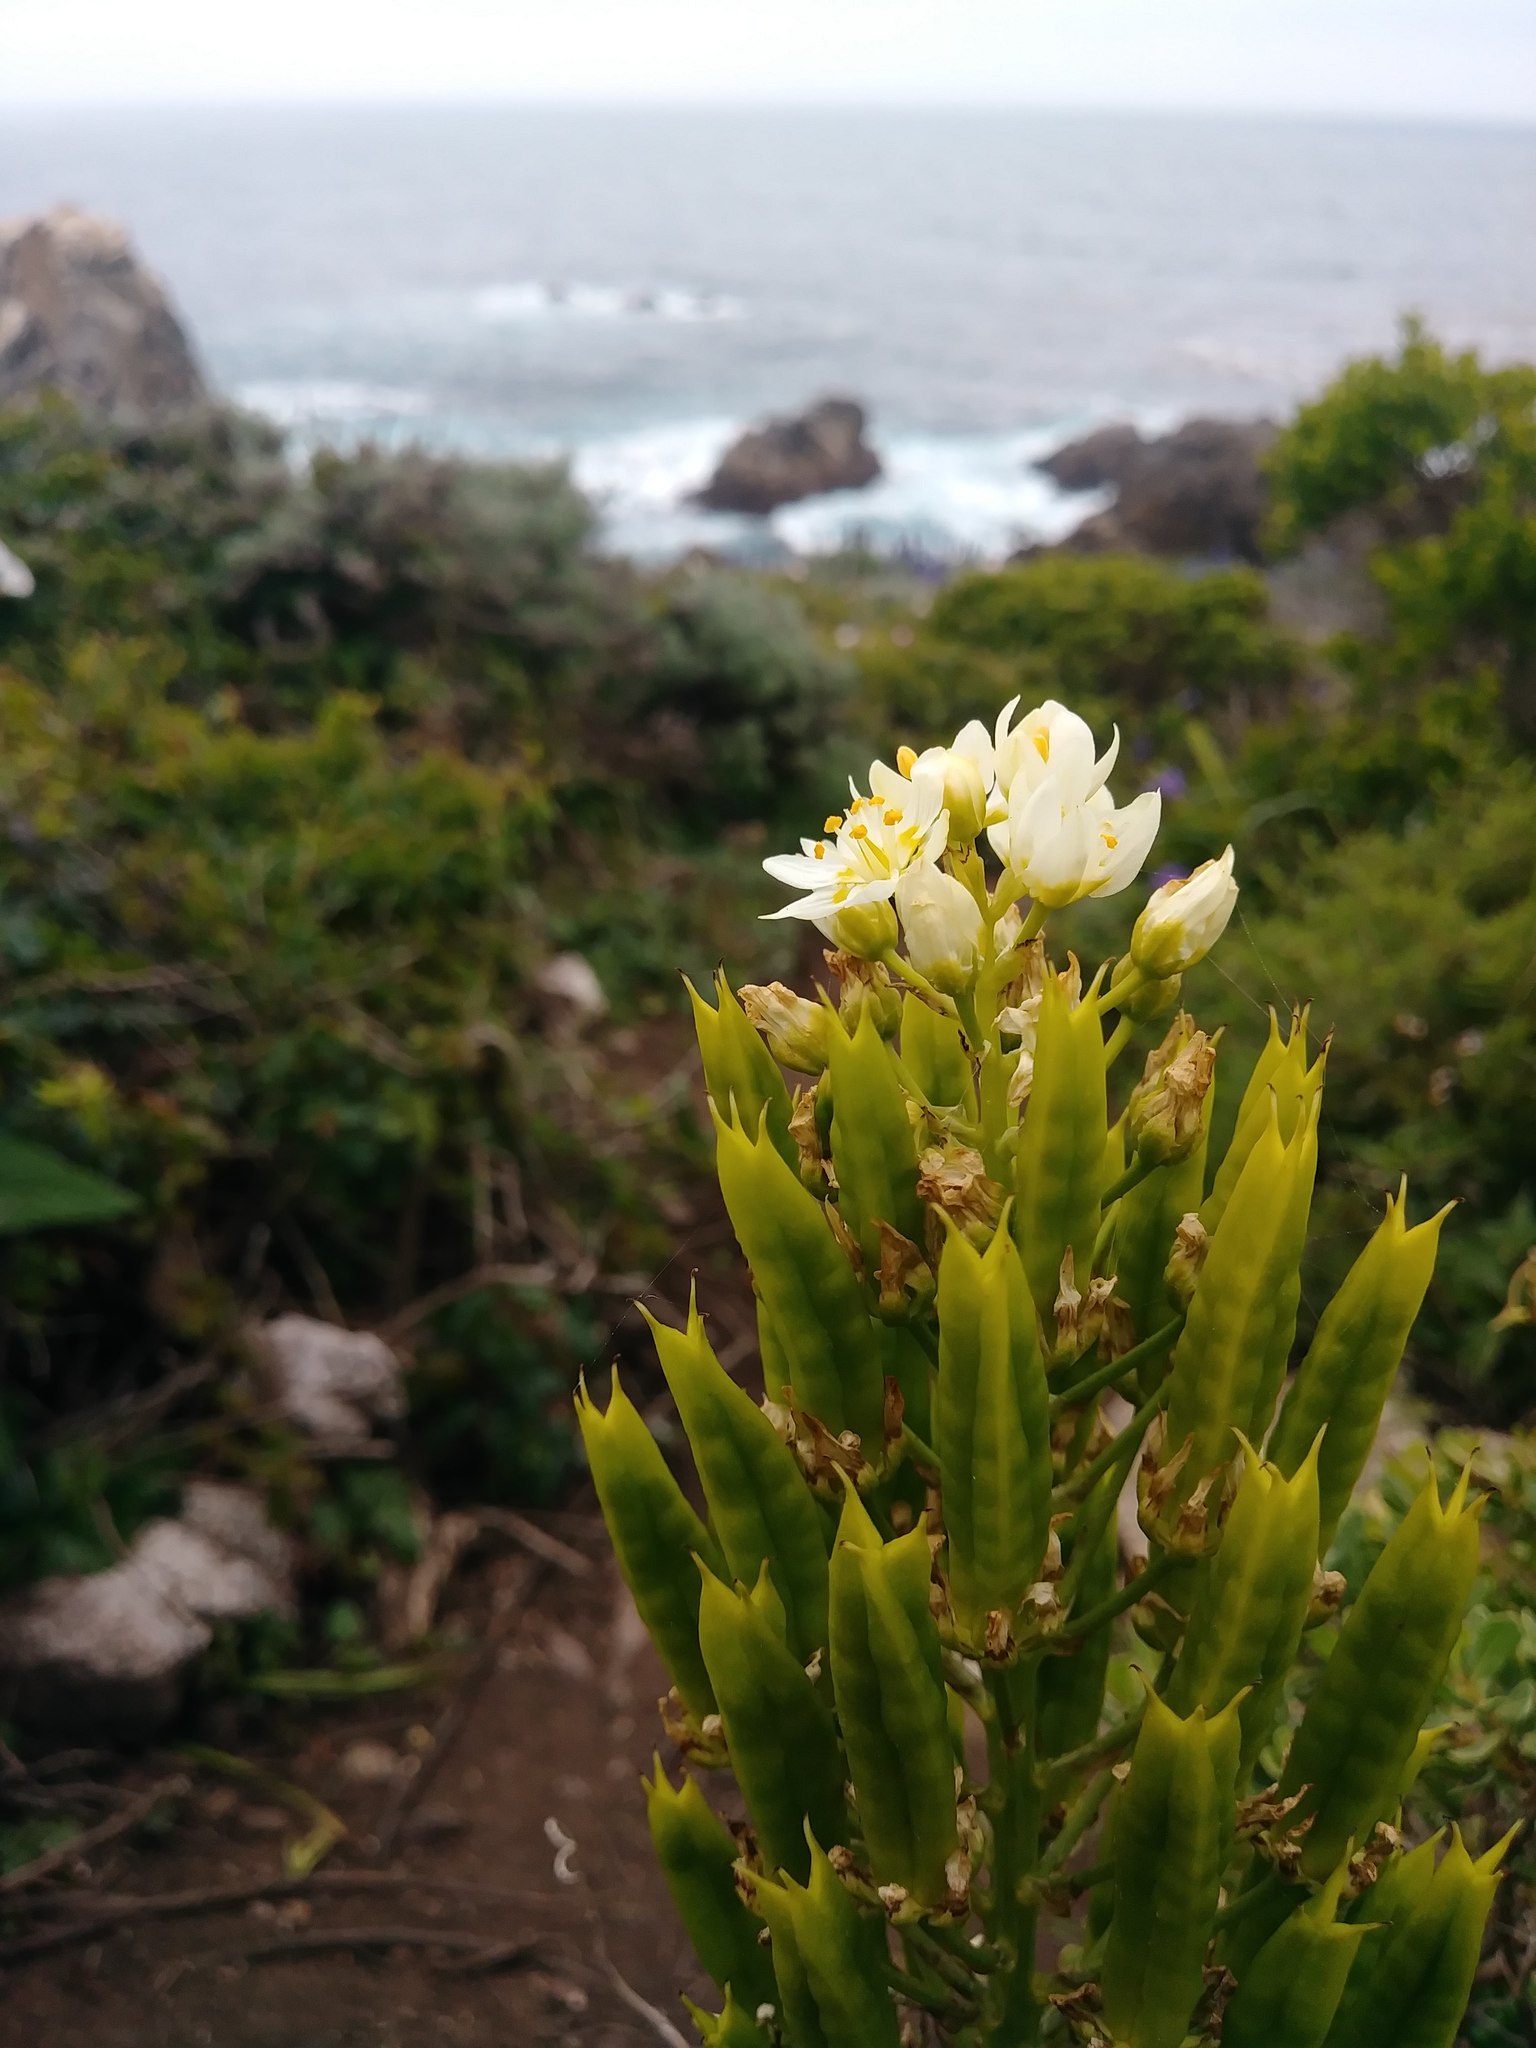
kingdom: Plantae
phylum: Tracheophyta
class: Liliopsida
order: Liliales
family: Melanthiaceae
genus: Toxicoscordion
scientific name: Toxicoscordion fremontii
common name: Fremont's death camas
